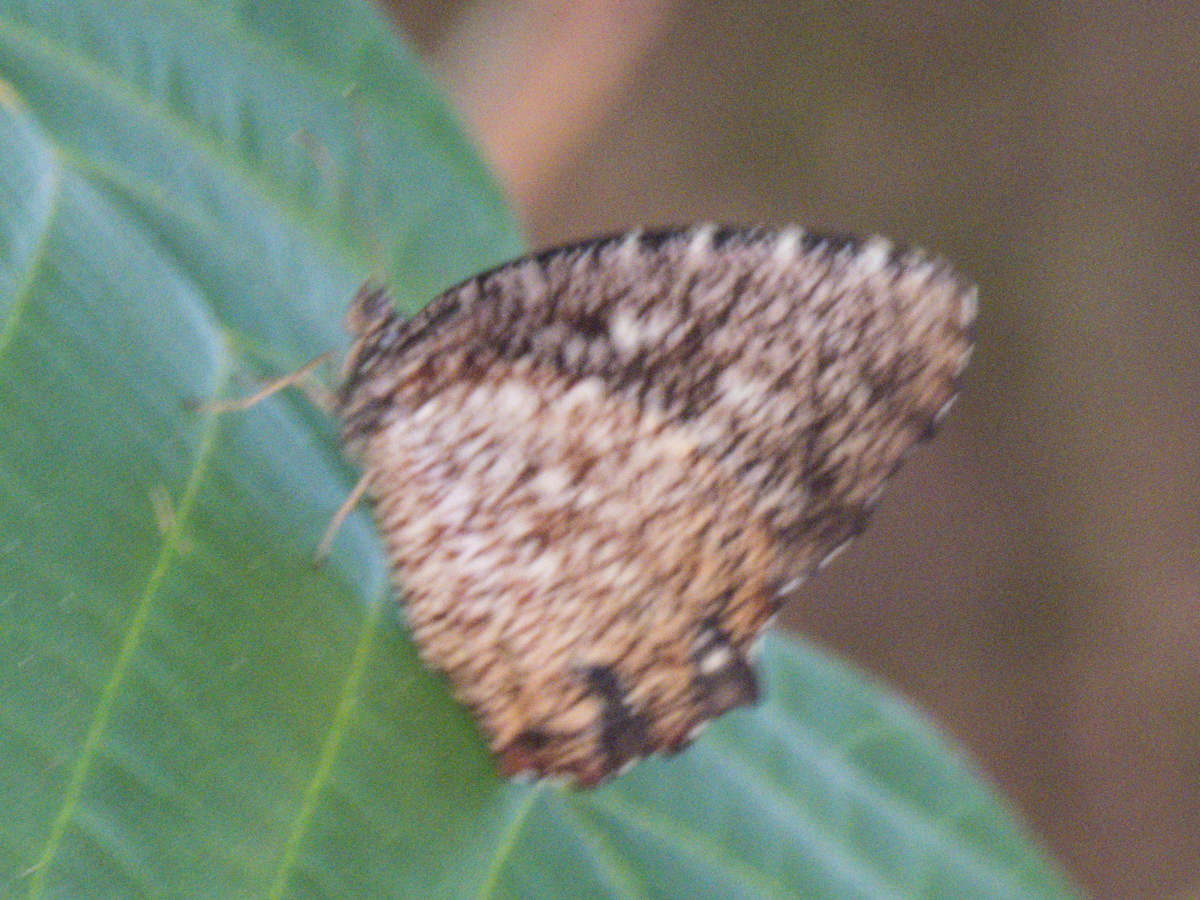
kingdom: Animalia
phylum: Arthropoda
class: Insecta
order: Lepidoptera
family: Nymphalidae
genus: Elymnias
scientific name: Elymnias nesaea
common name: Tiger palmfly
